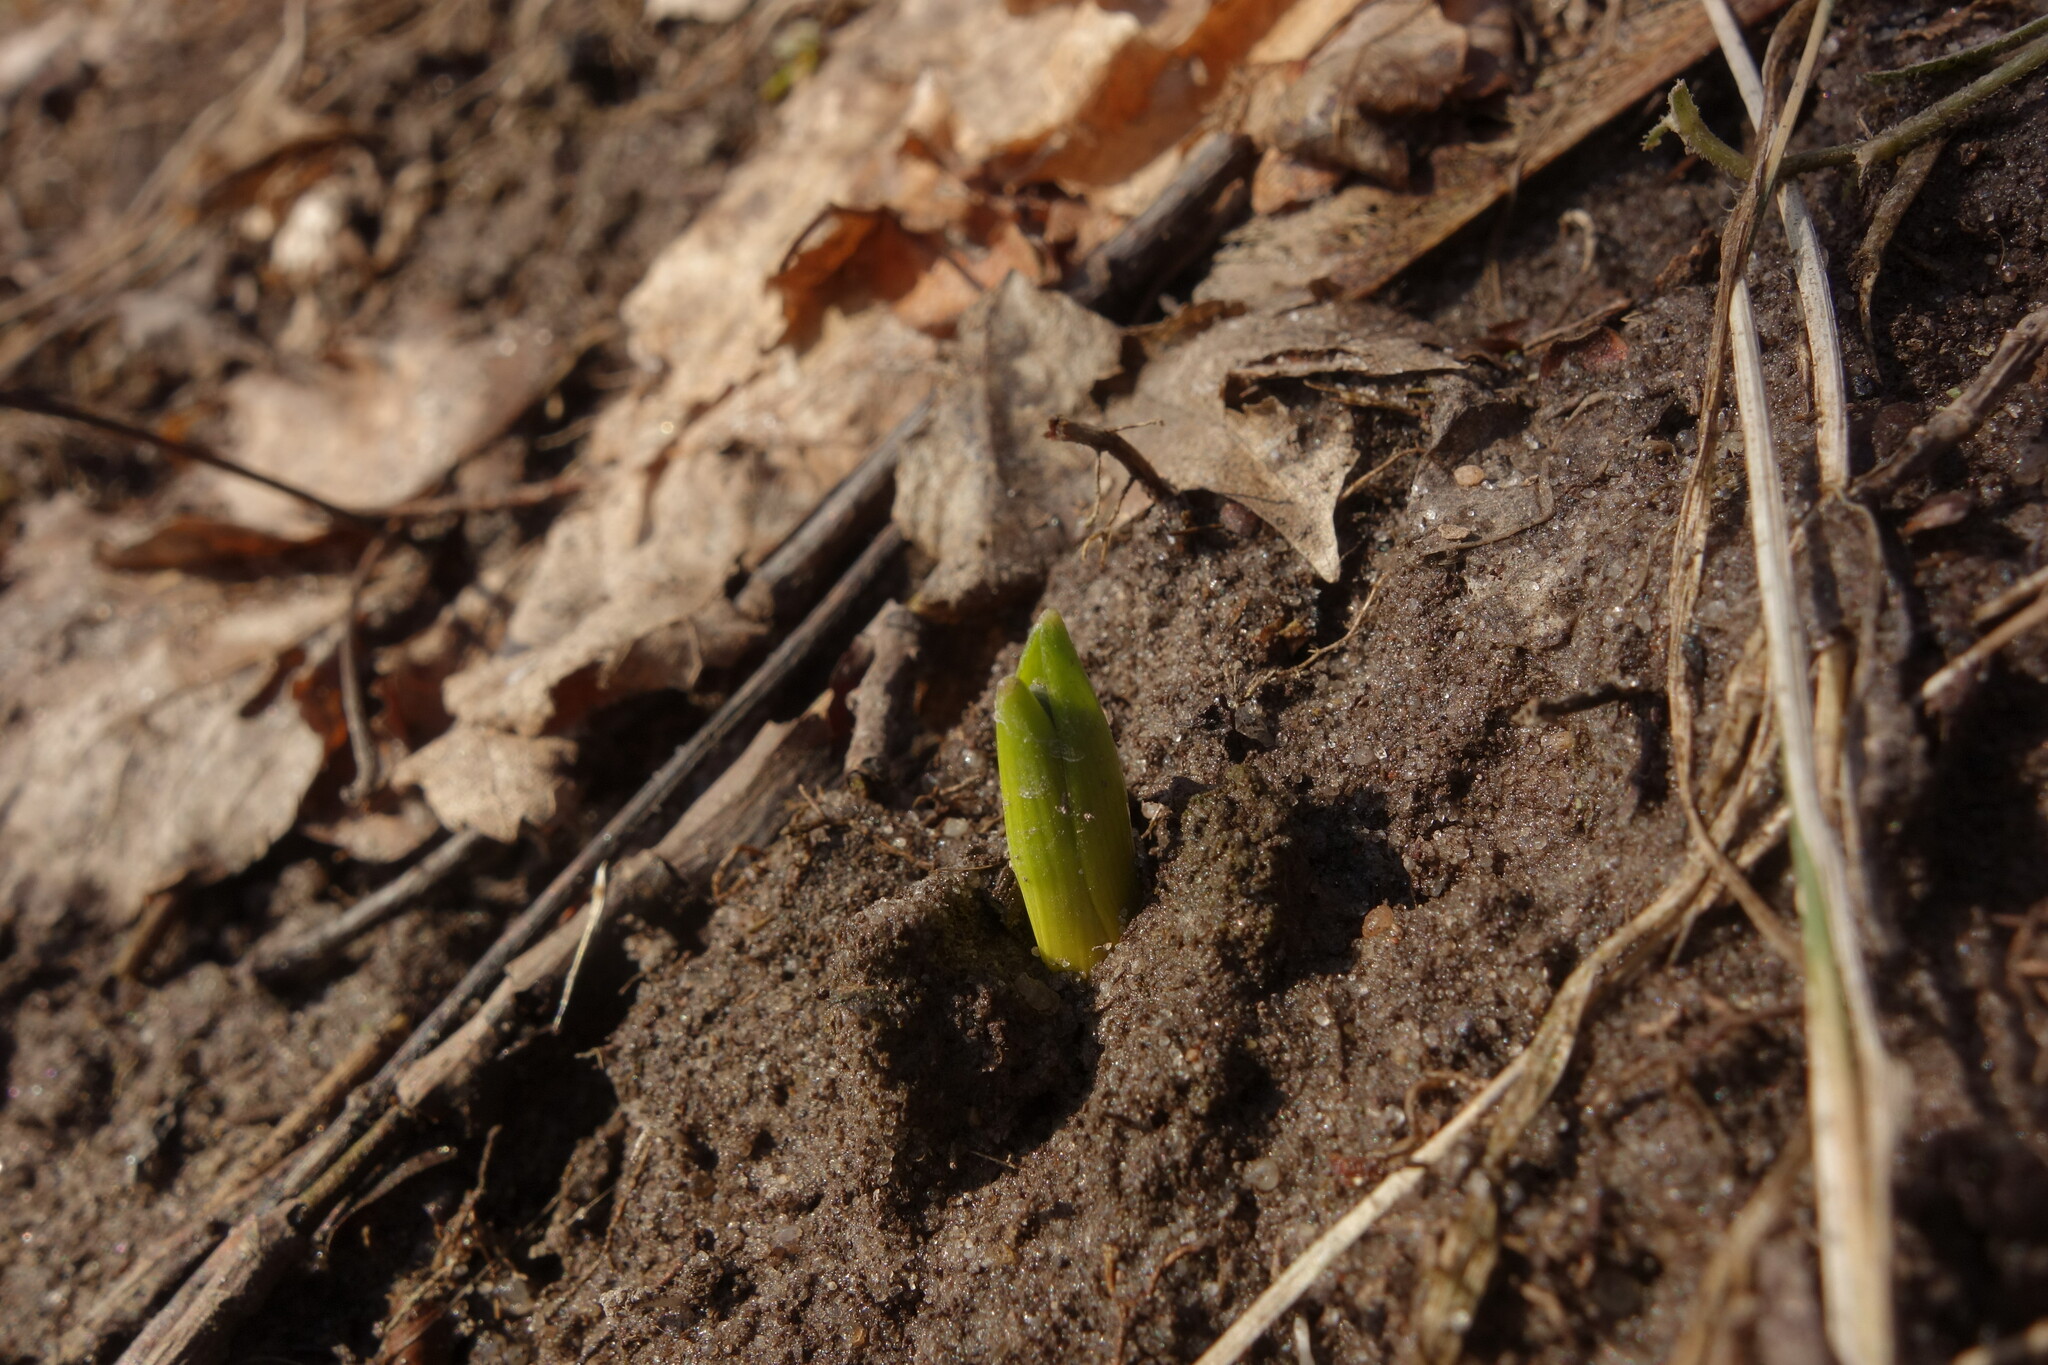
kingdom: Plantae
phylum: Tracheophyta
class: Liliopsida
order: Asparagales
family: Asparagaceae
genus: Scilla
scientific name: Scilla siberica
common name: Siberian squill
